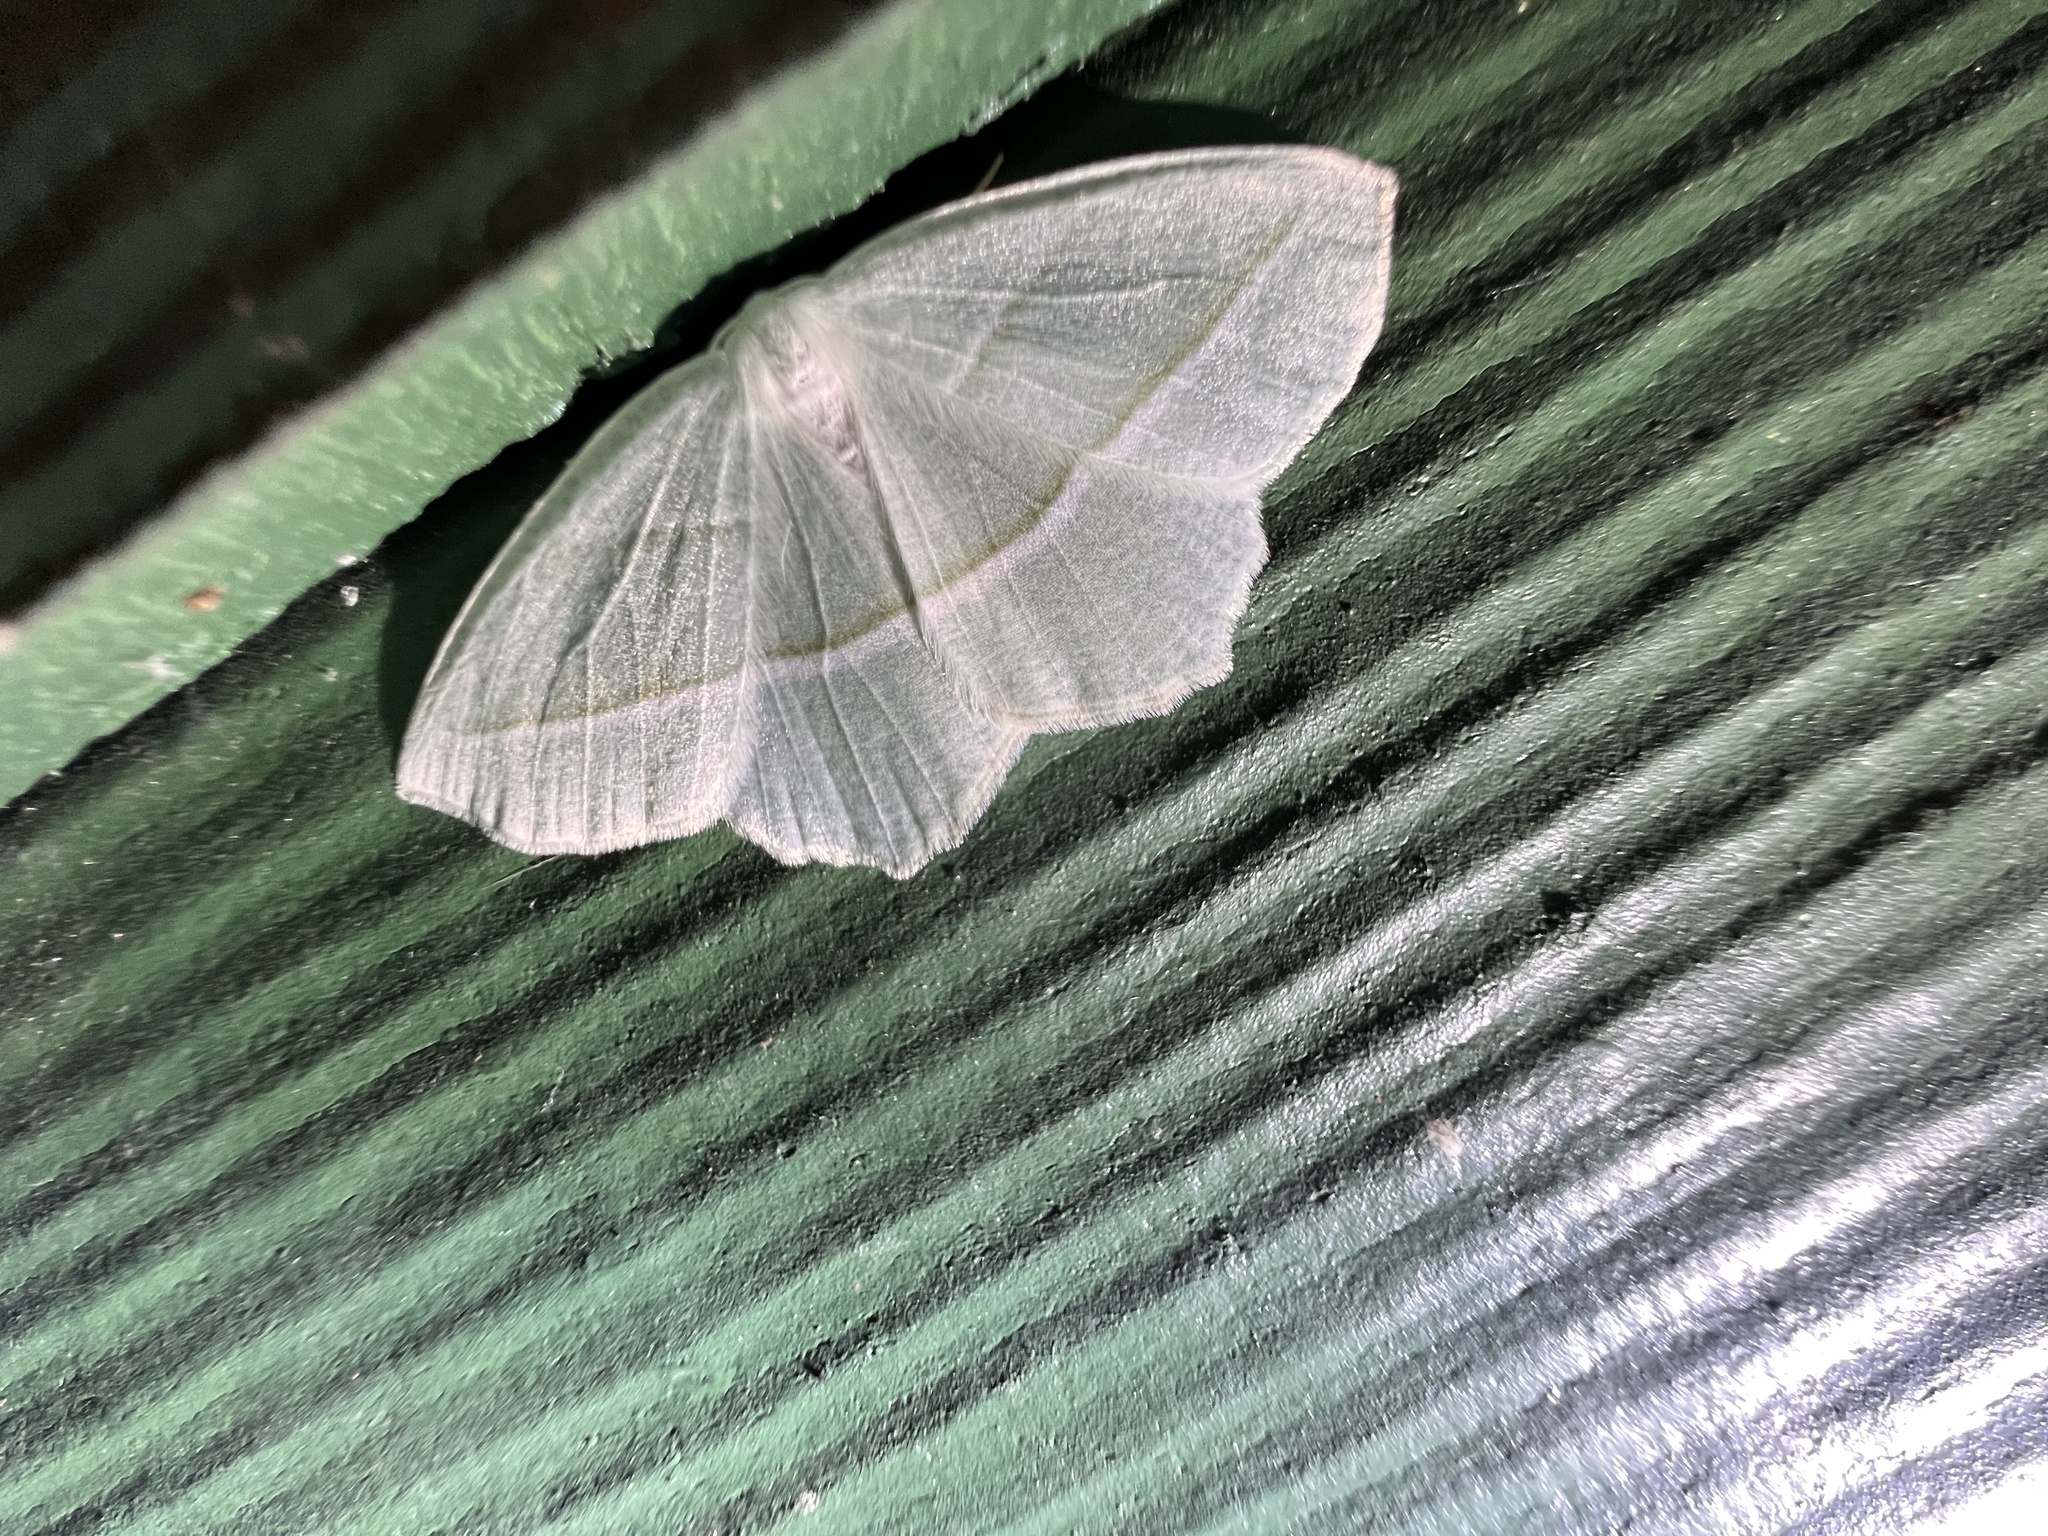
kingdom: Animalia
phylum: Arthropoda
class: Insecta
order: Lepidoptera
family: Geometridae
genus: Campaea
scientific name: Campaea perlata
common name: Fringed looper
